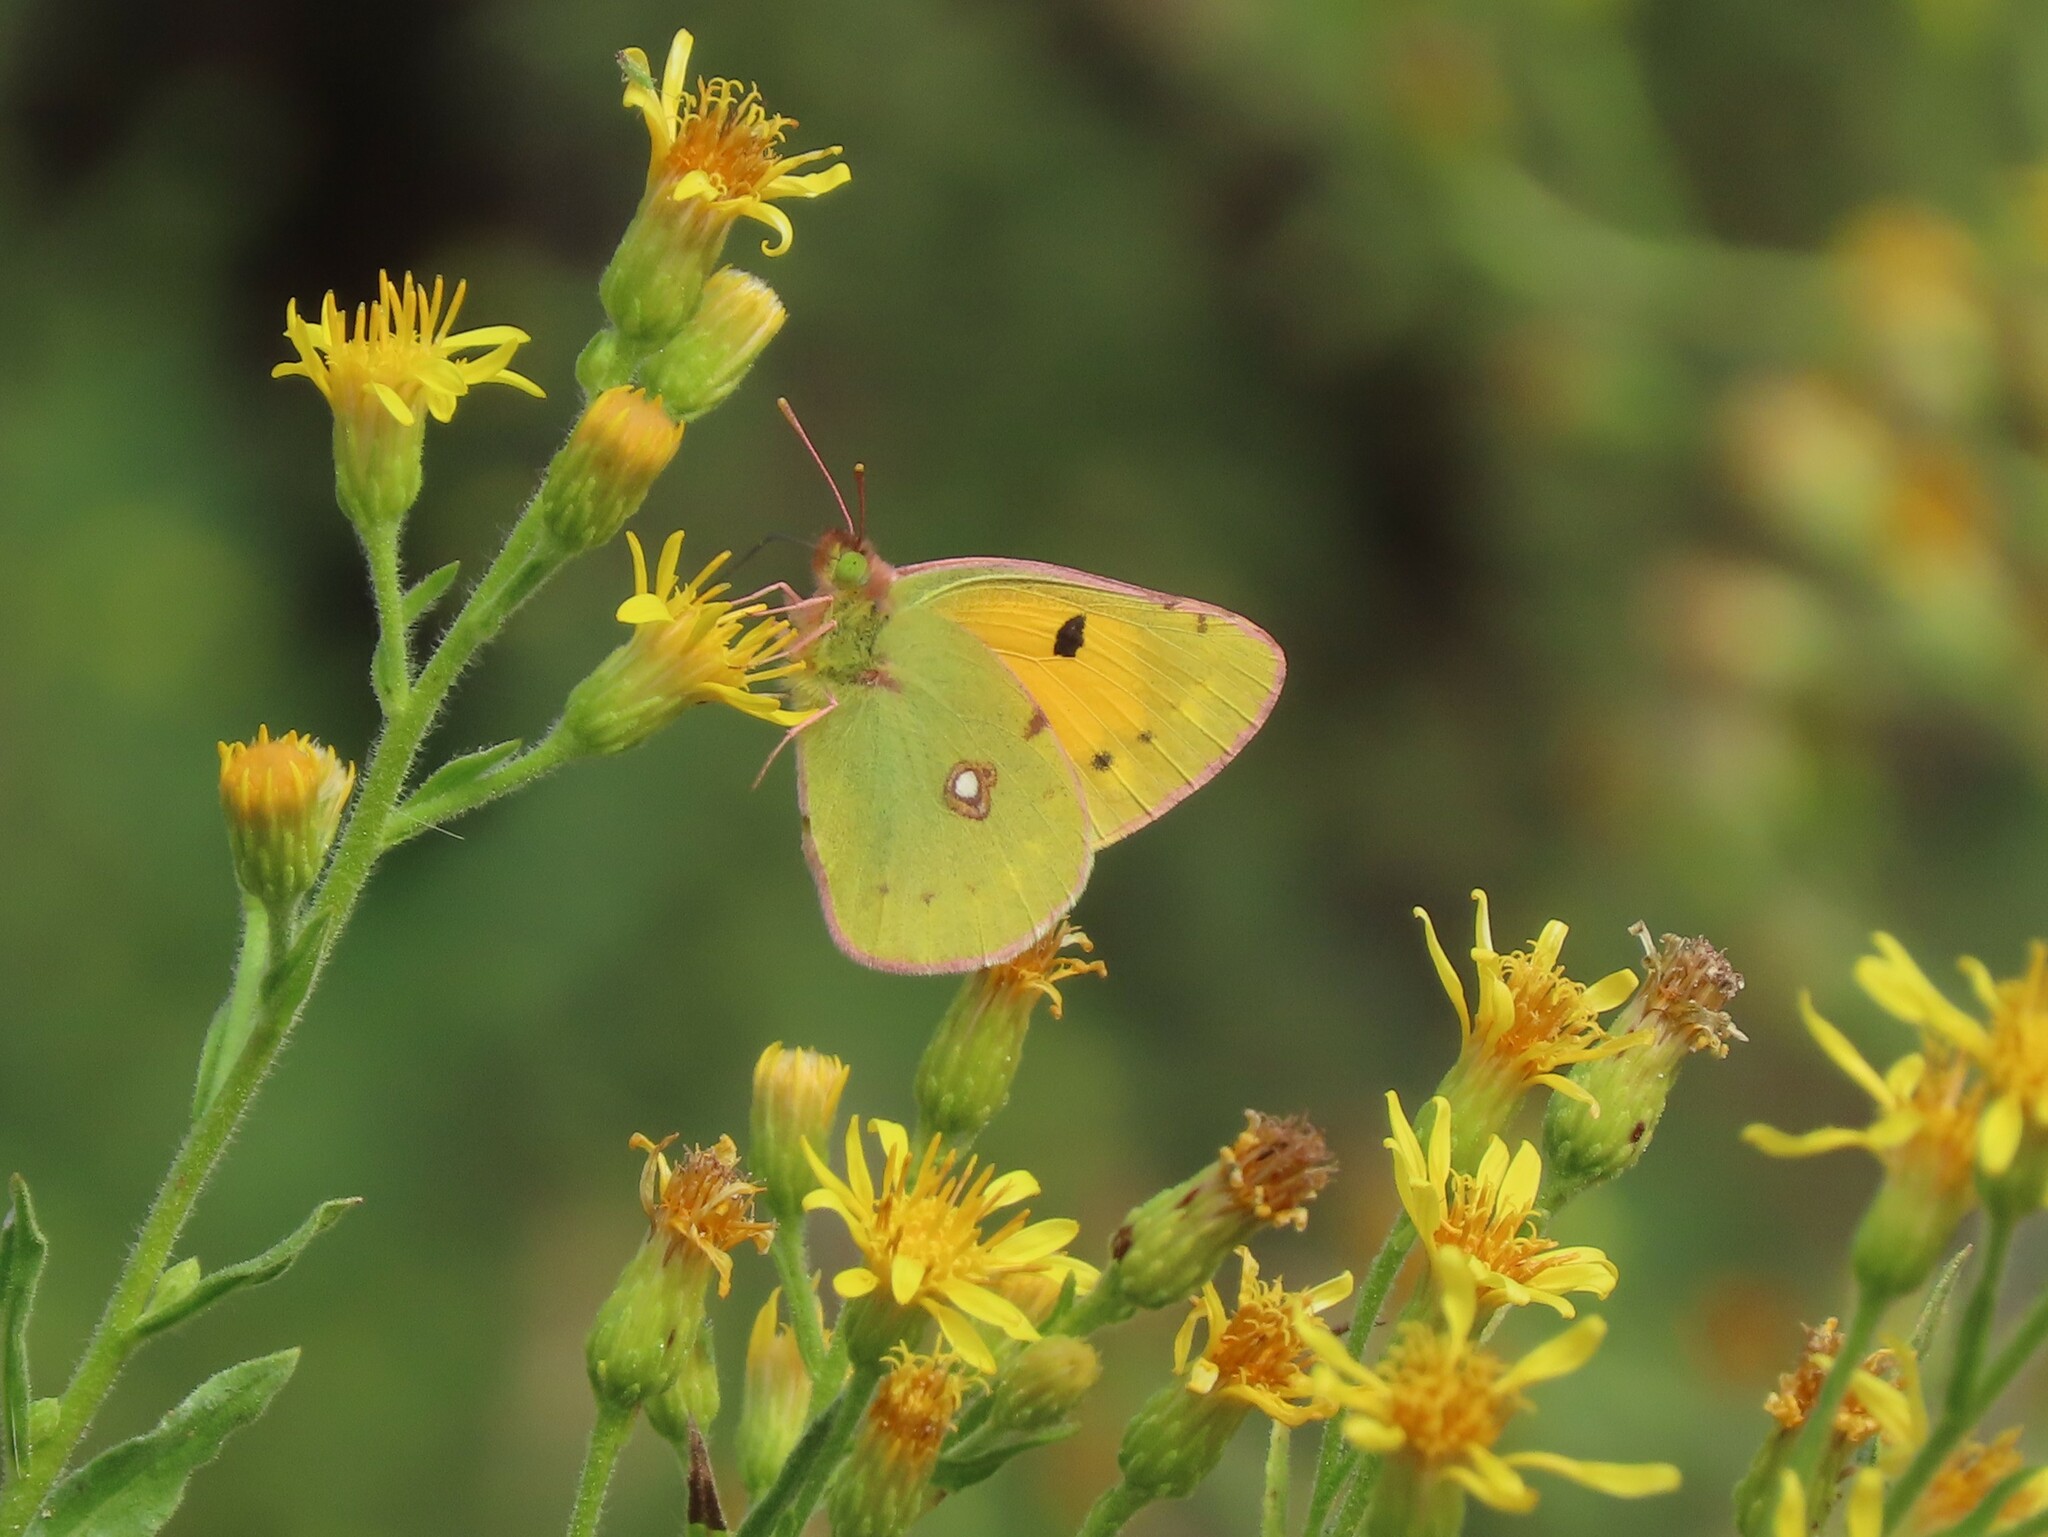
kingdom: Animalia
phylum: Arthropoda
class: Insecta
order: Lepidoptera
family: Pieridae
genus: Colias
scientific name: Colias croceus
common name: Clouded yellow
